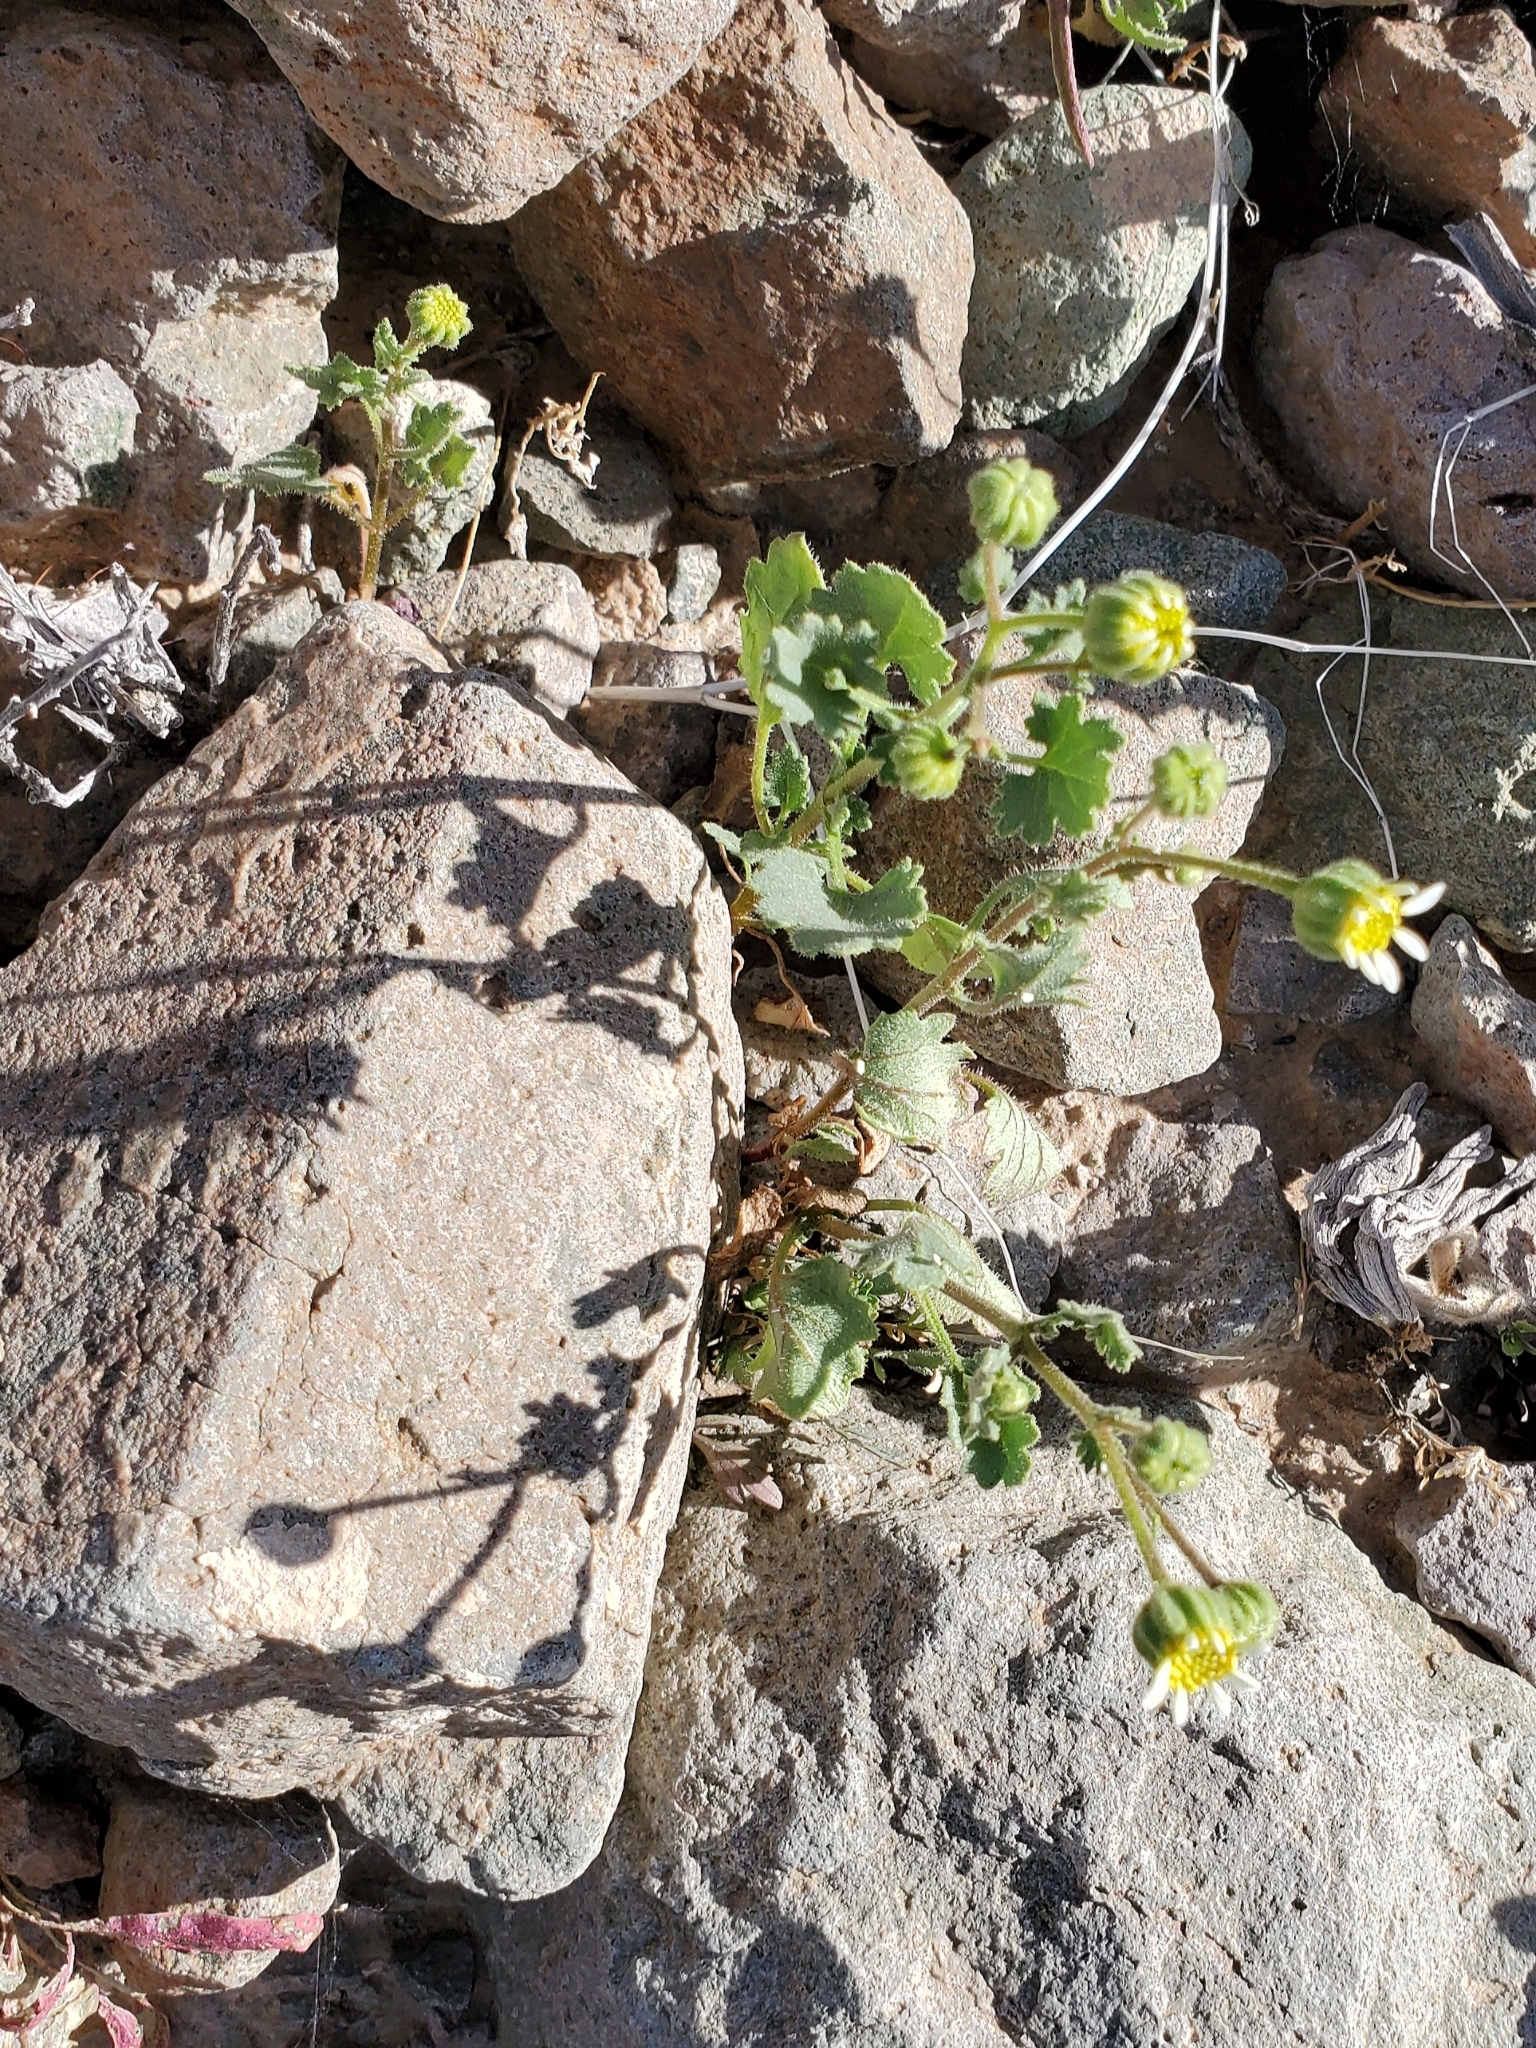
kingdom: Plantae
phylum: Tracheophyta
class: Magnoliopsida
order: Asterales
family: Asteraceae
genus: Laphamia
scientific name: Laphamia emoryi
